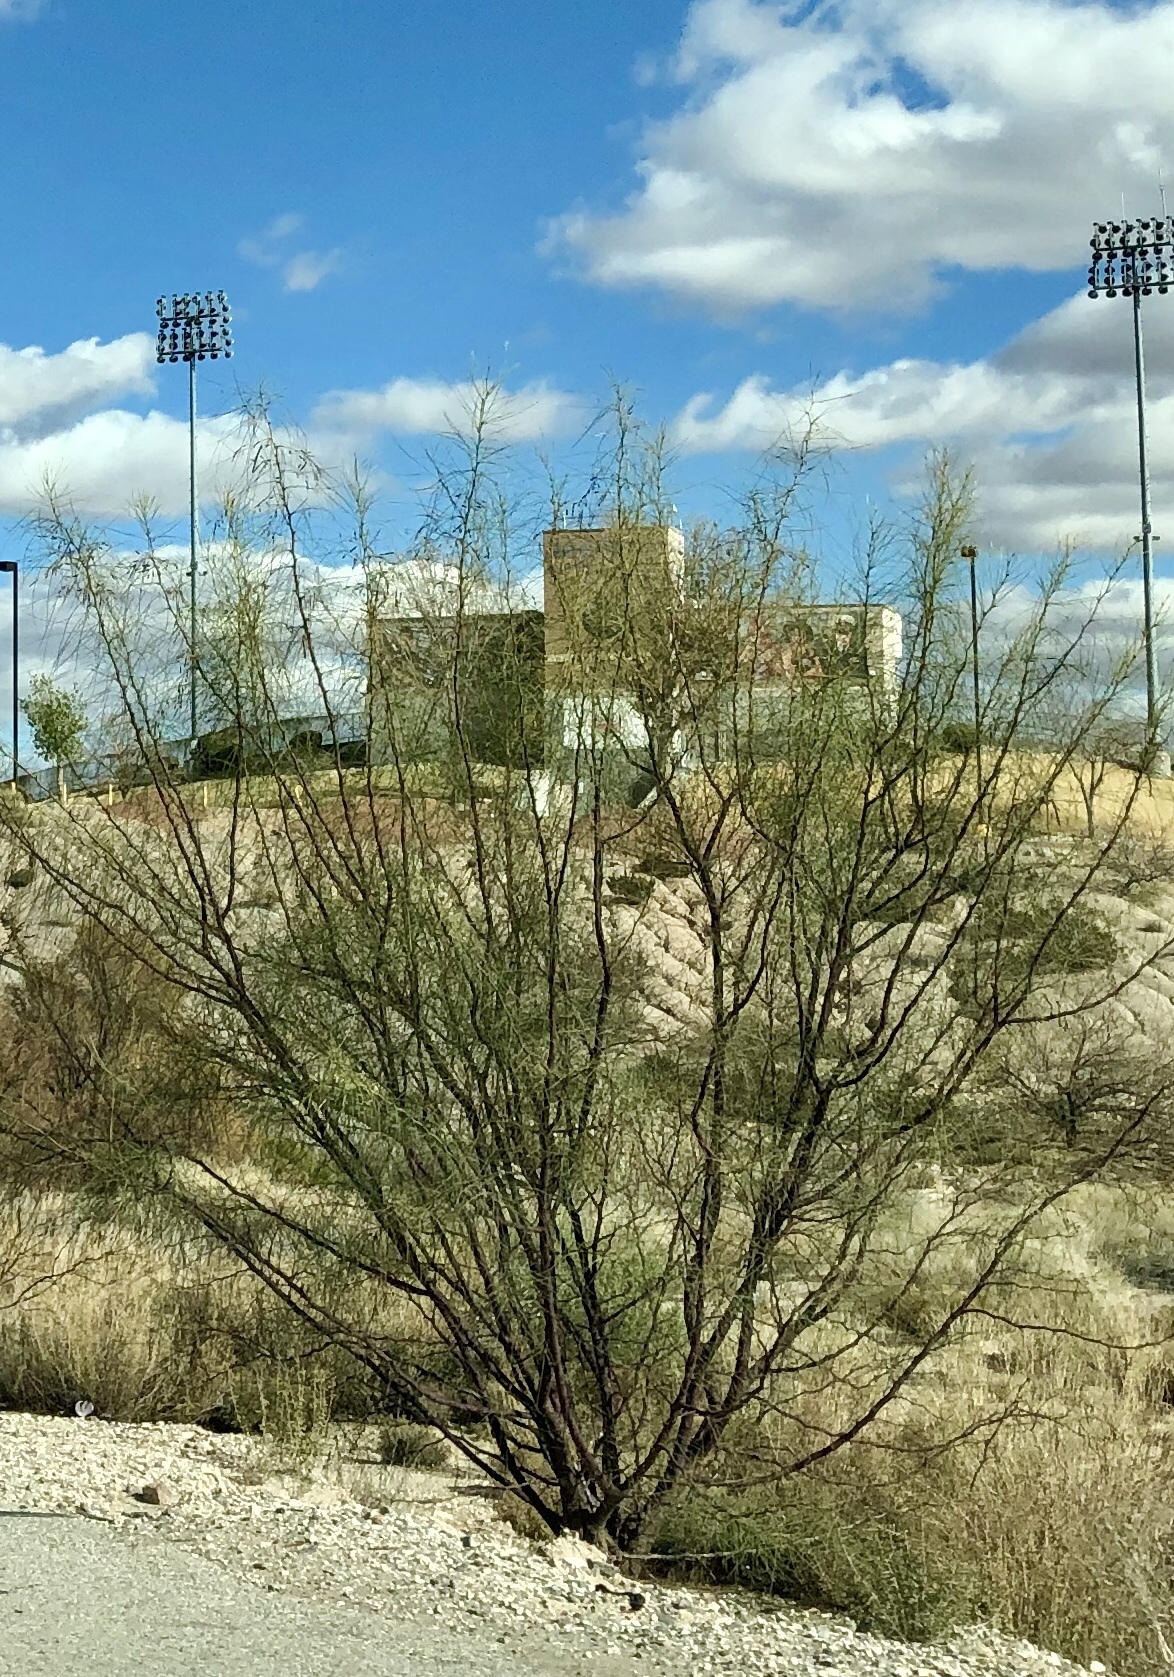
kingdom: Plantae
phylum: Tracheophyta
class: Magnoliopsida
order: Fabales
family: Fabaceae
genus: Parkinsonia
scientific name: Parkinsonia aculeata
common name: Jerusalem thorn
